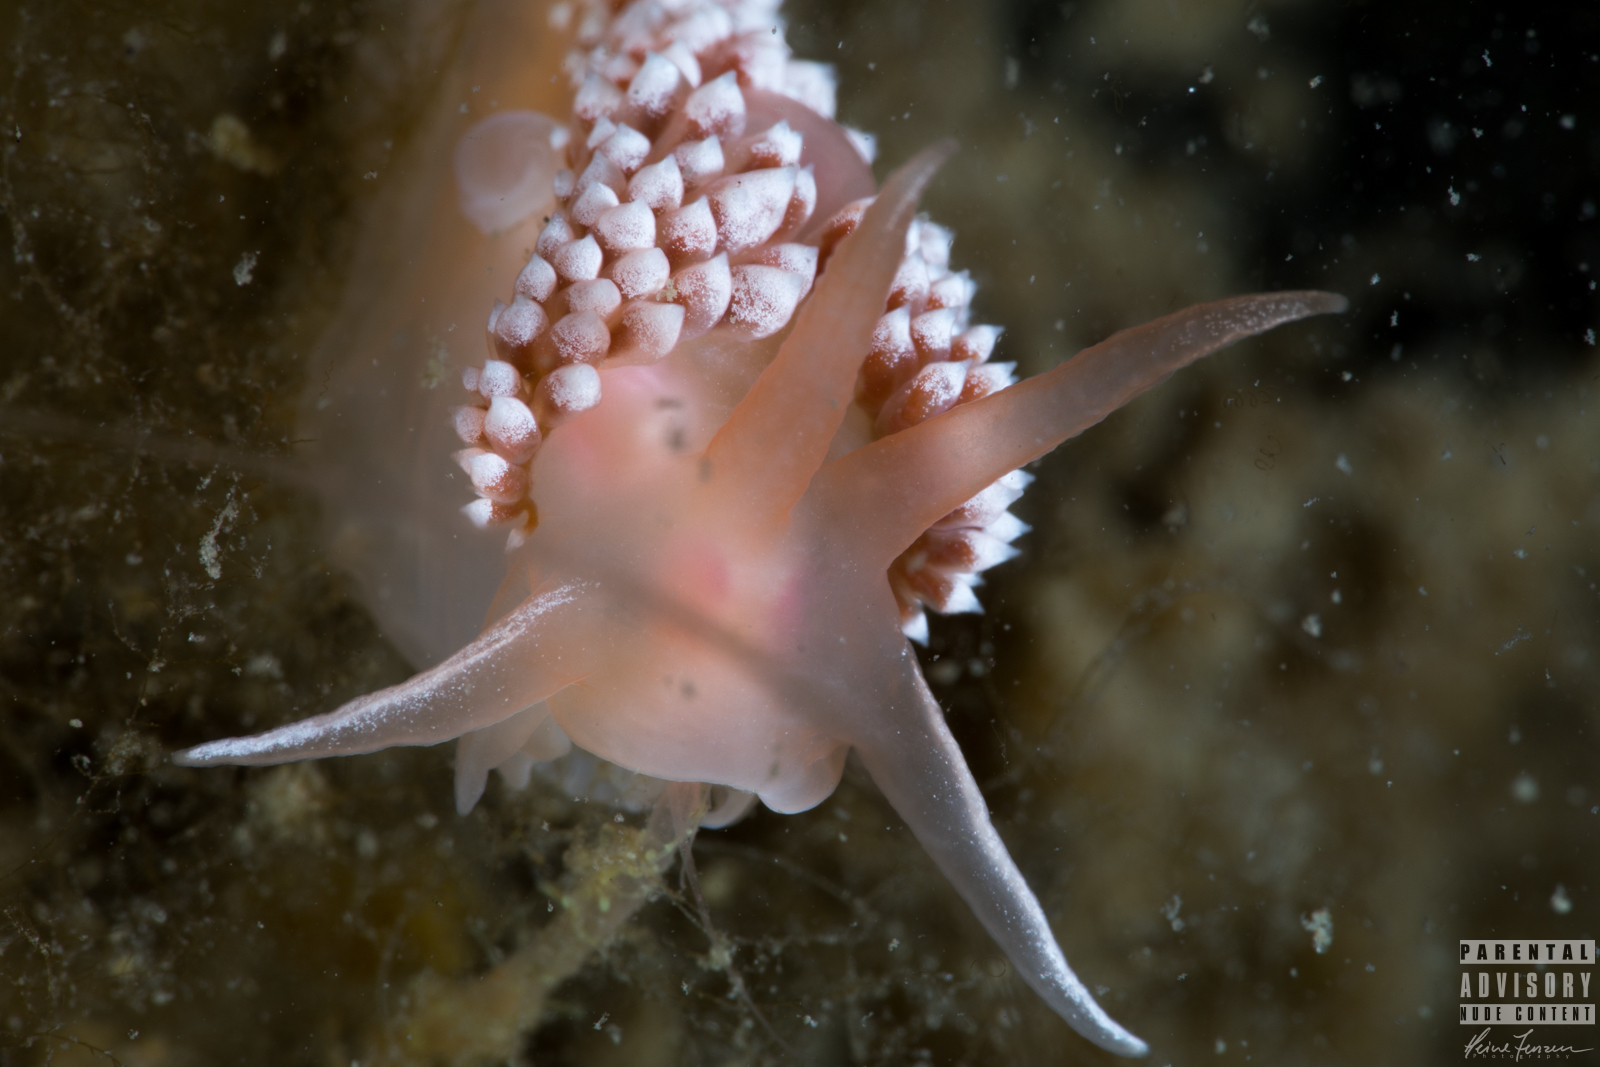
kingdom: Animalia
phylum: Mollusca
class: Gastropoda
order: Nudibranchia
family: Coryphellidae
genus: Coryphella
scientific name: Coryphella verrucosa
